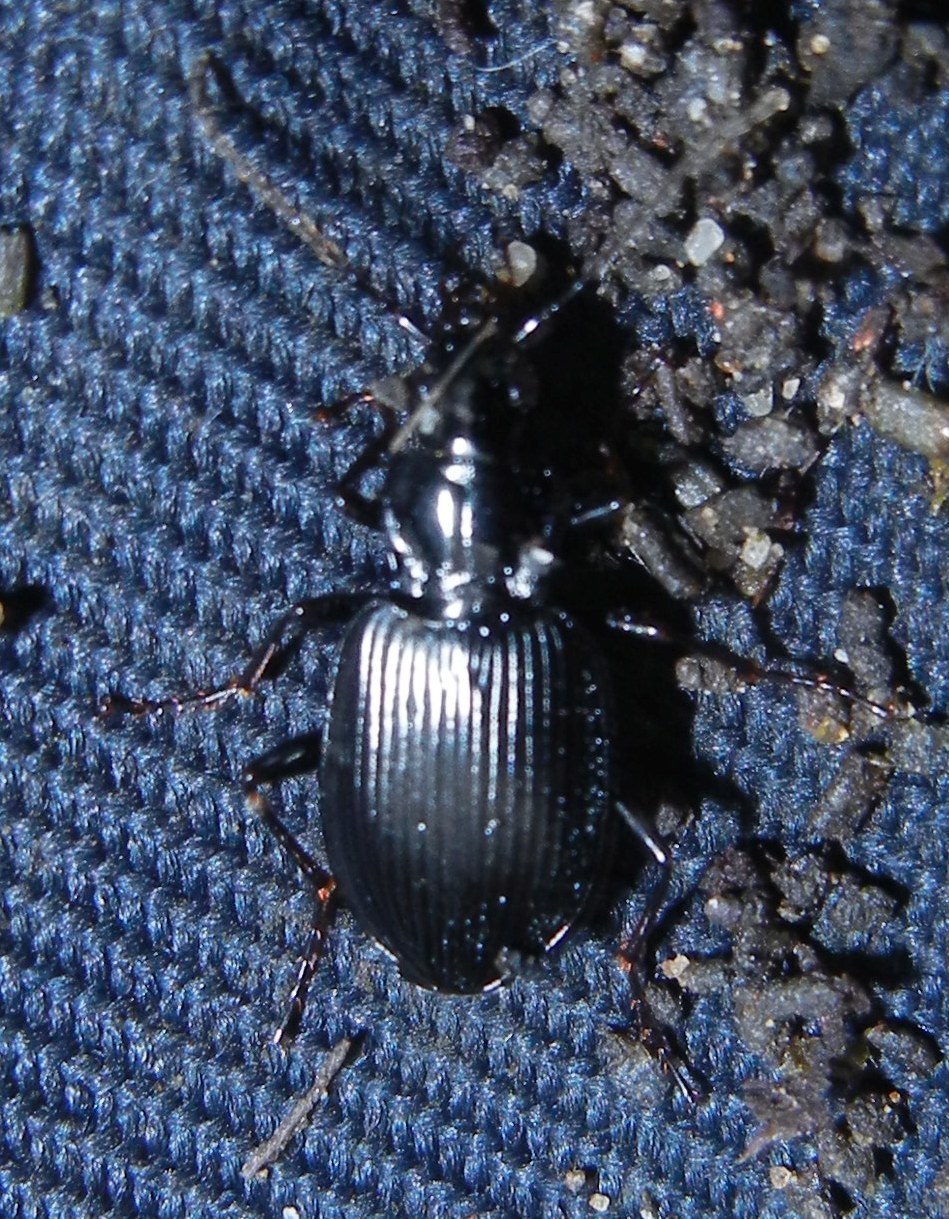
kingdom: Animalia
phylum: Arthropoda
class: Insecta
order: Coleoptera
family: Carabidae
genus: Platynus
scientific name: Platynus assimilis
